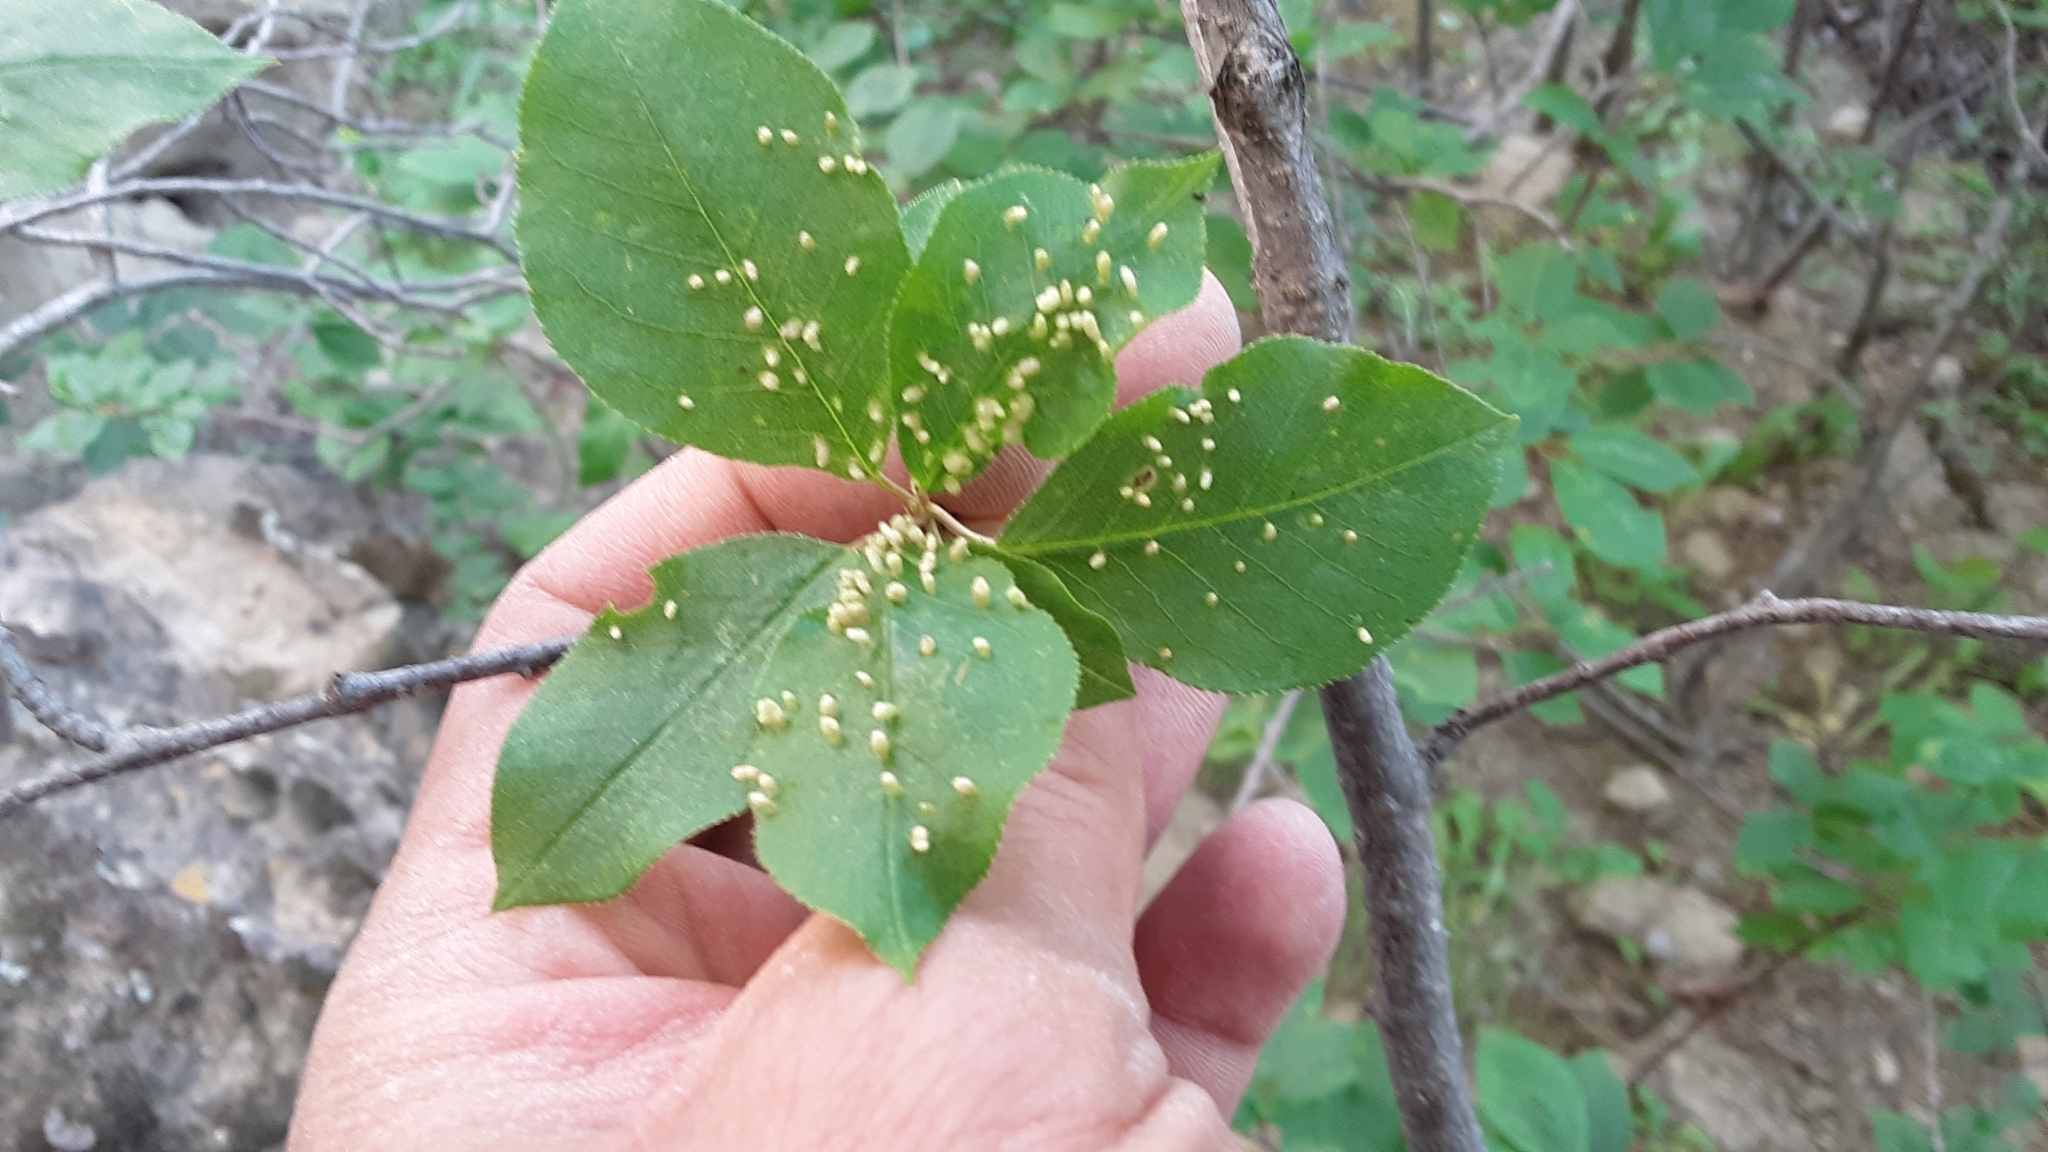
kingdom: Plantae
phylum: Tracheophyta
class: Magnoliopsida
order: Rosales
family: Rosaceae
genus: Prunus
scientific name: Prunus virginiana
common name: Chokecherry
